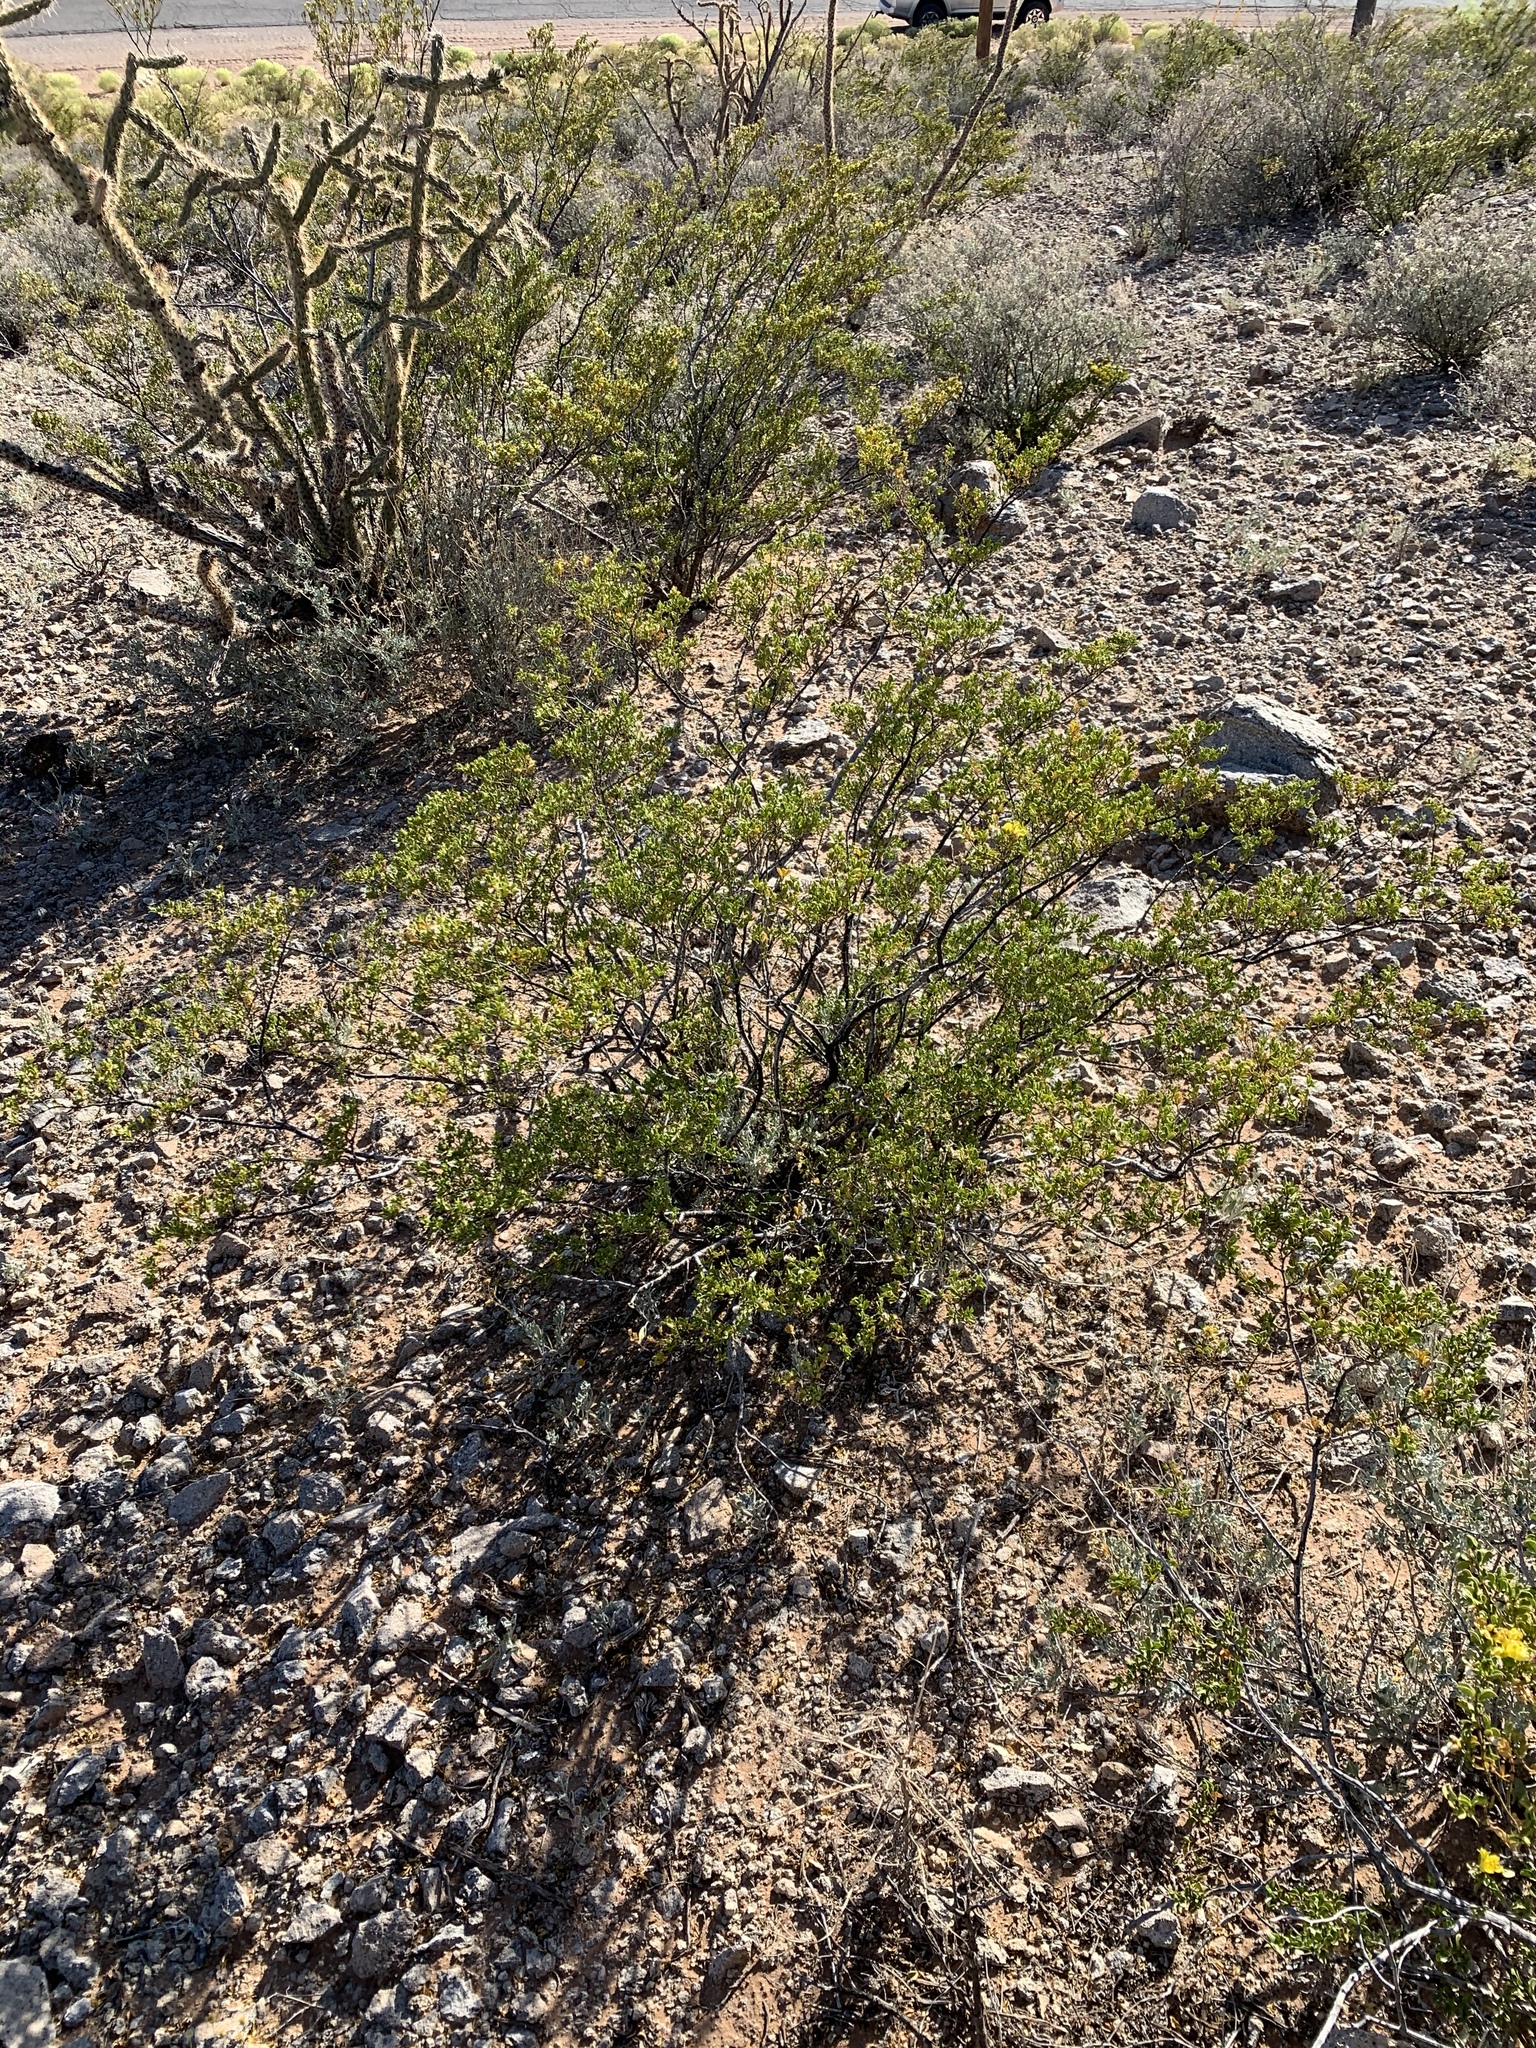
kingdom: Plantae
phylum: Tracheophyta
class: Magnoliopsida
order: Zygophyllales
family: Zygophyllaceae
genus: Larrea
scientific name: Larrea tridentata
